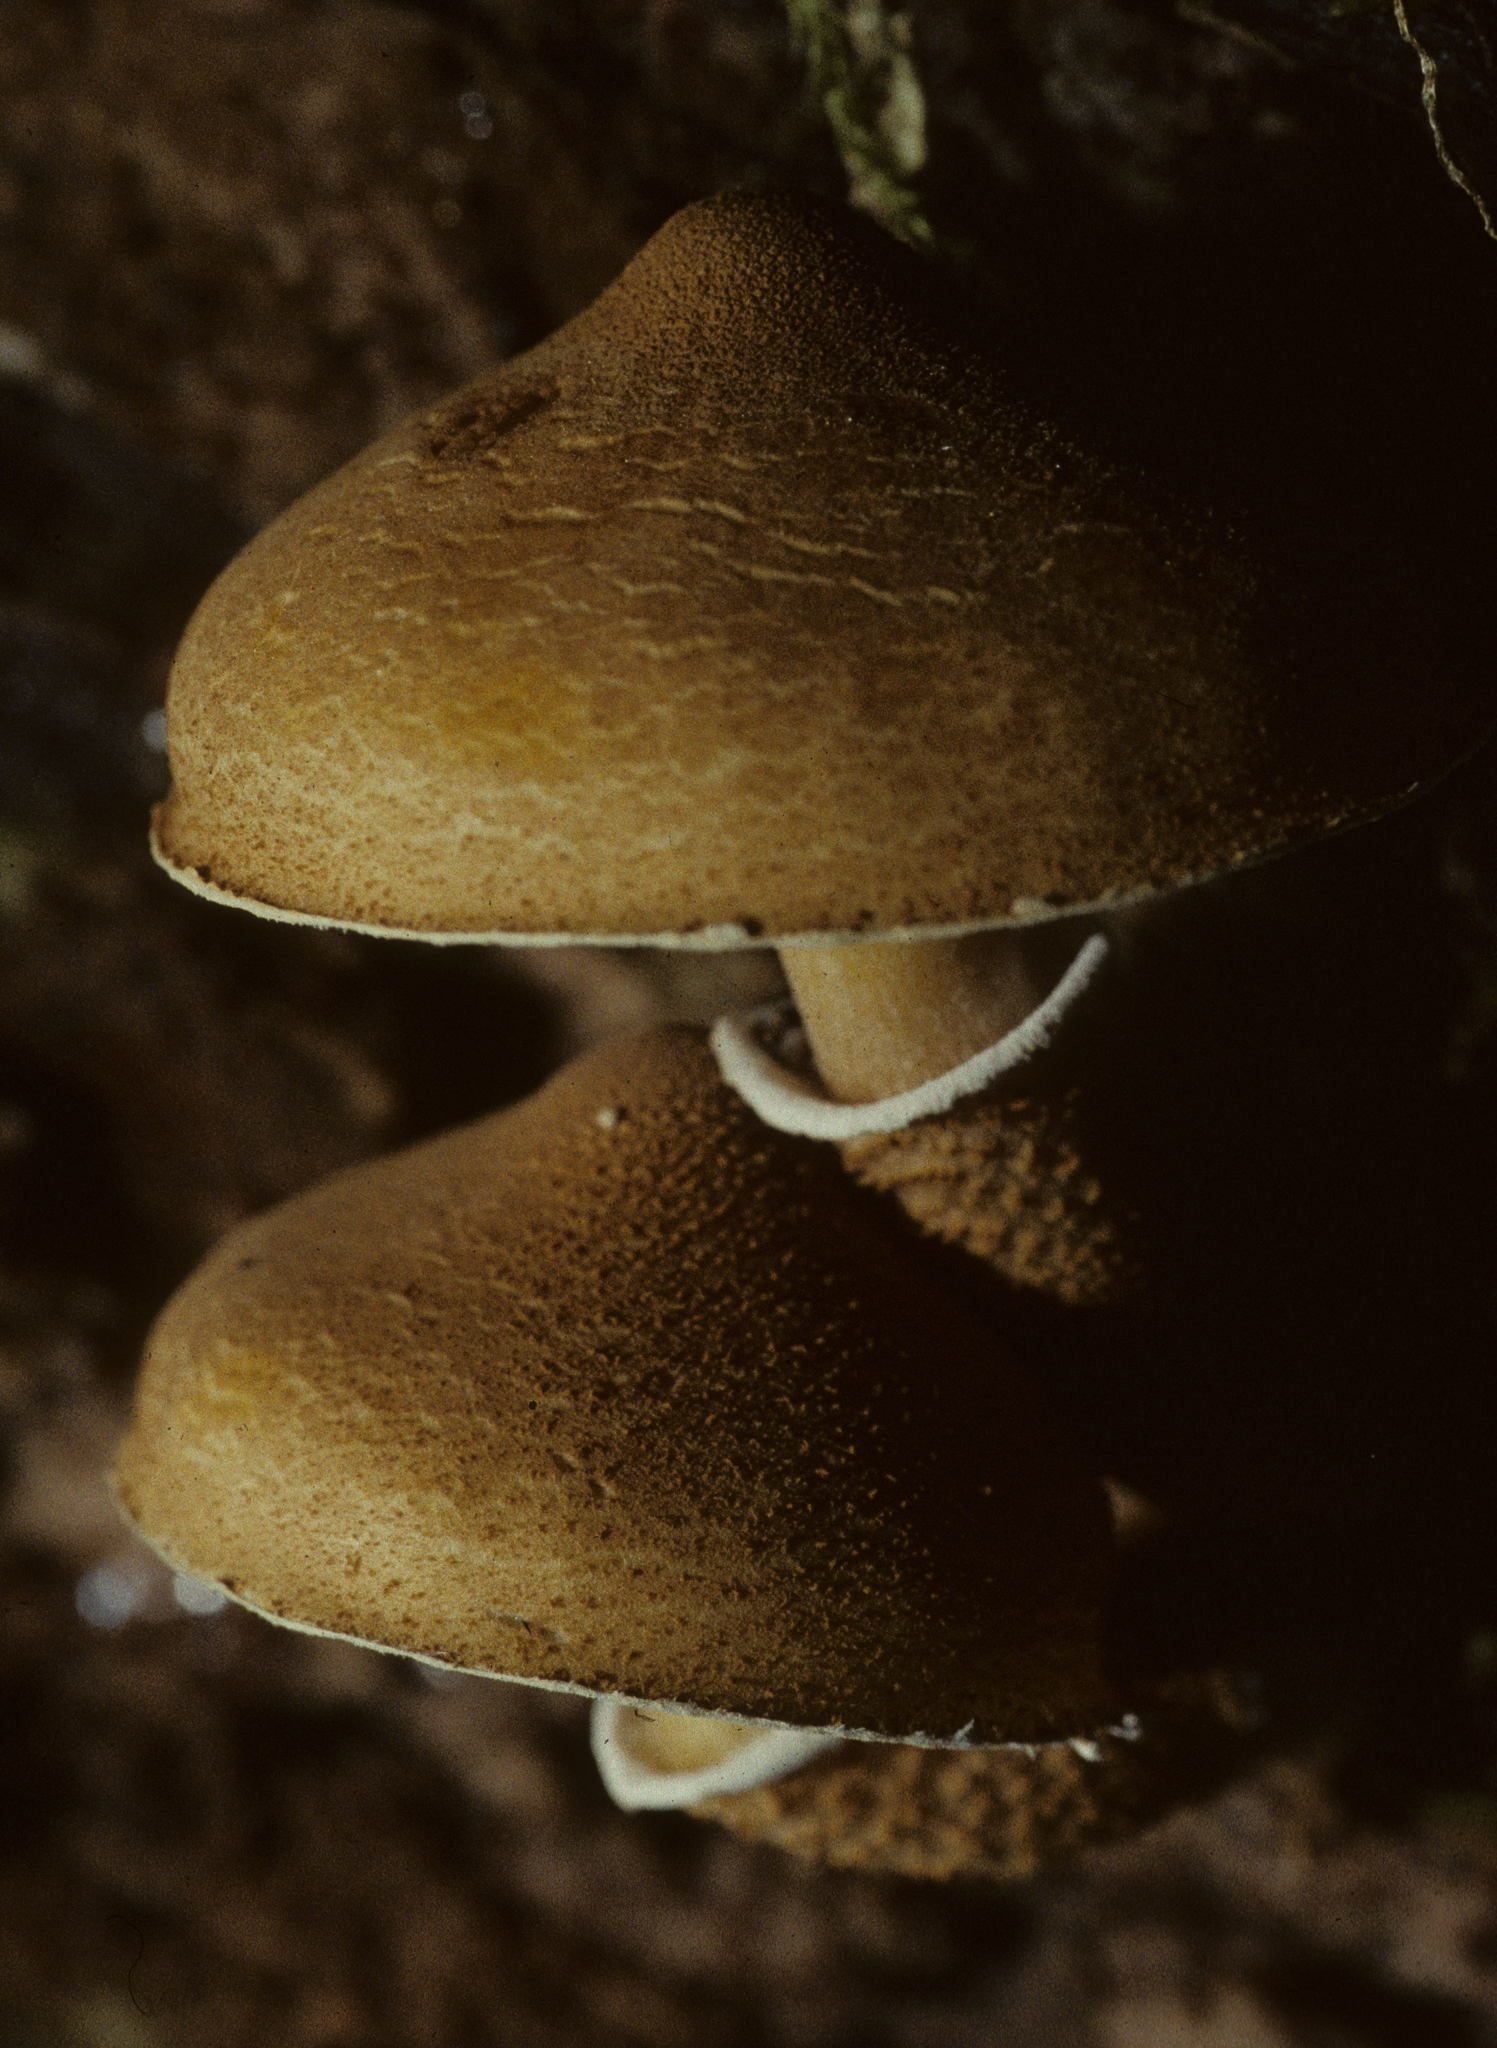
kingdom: Fungi
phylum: Basidiomycota
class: Agaricomycetes
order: Agaricales
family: Tricholomataceae
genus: Cystoderma
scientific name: Cystoderma granosum
